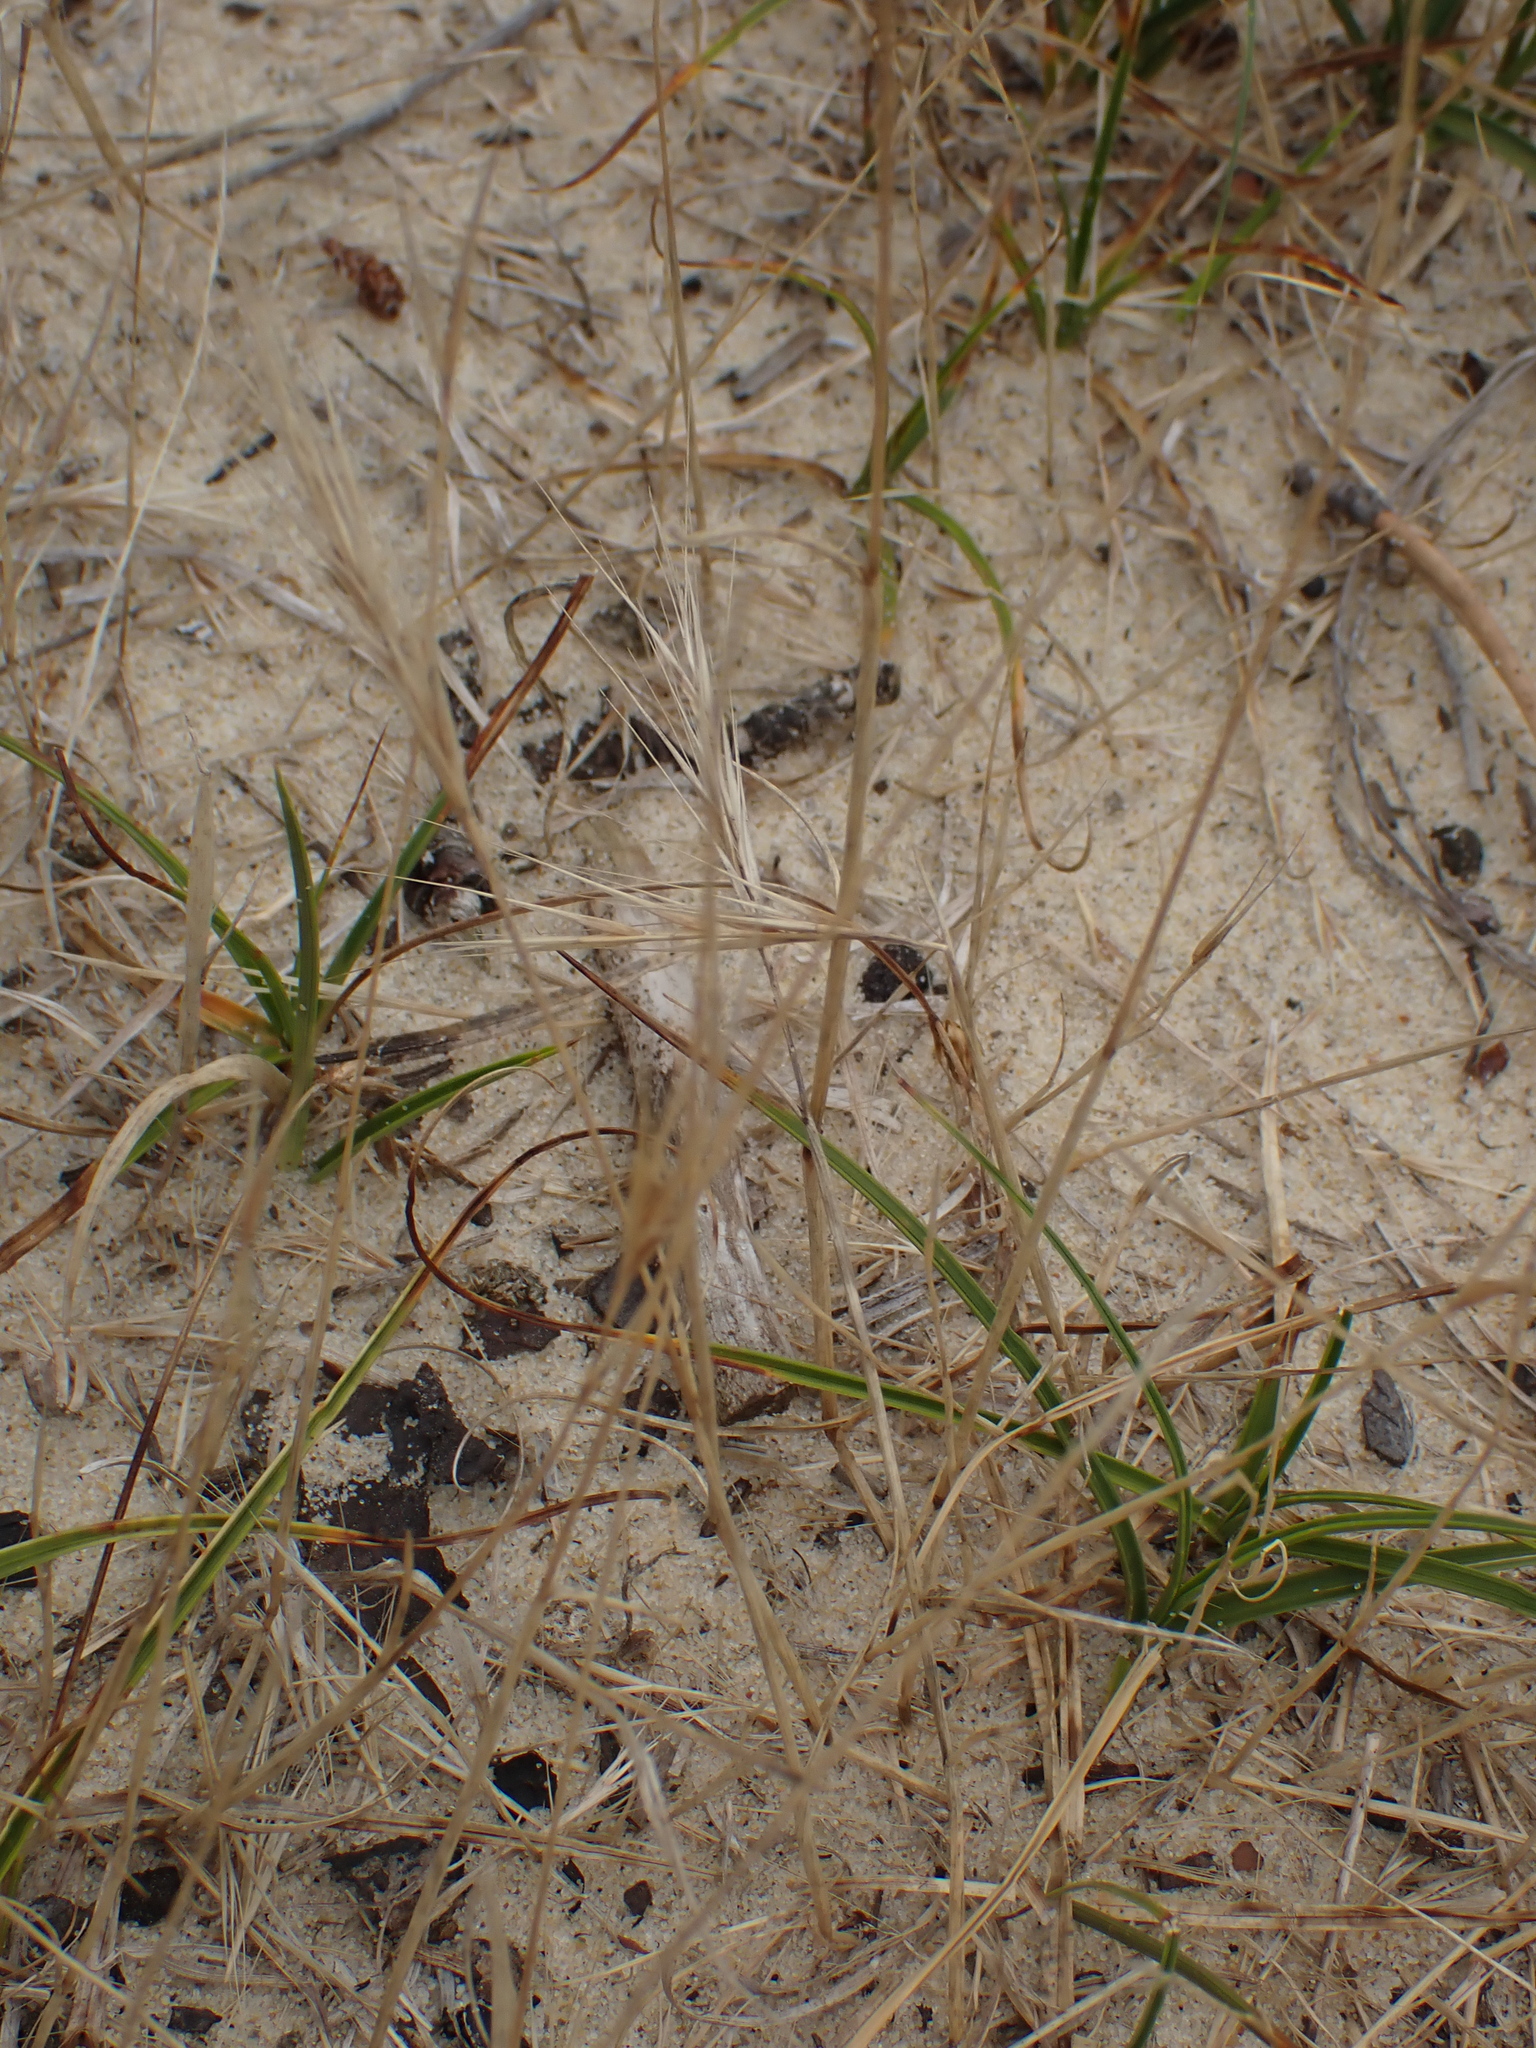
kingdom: Plantae
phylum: Tracheophyta
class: Liliopsida
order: Poales
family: Cyperaceae
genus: Carex
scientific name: Carex arenaria
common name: Sand sedge
